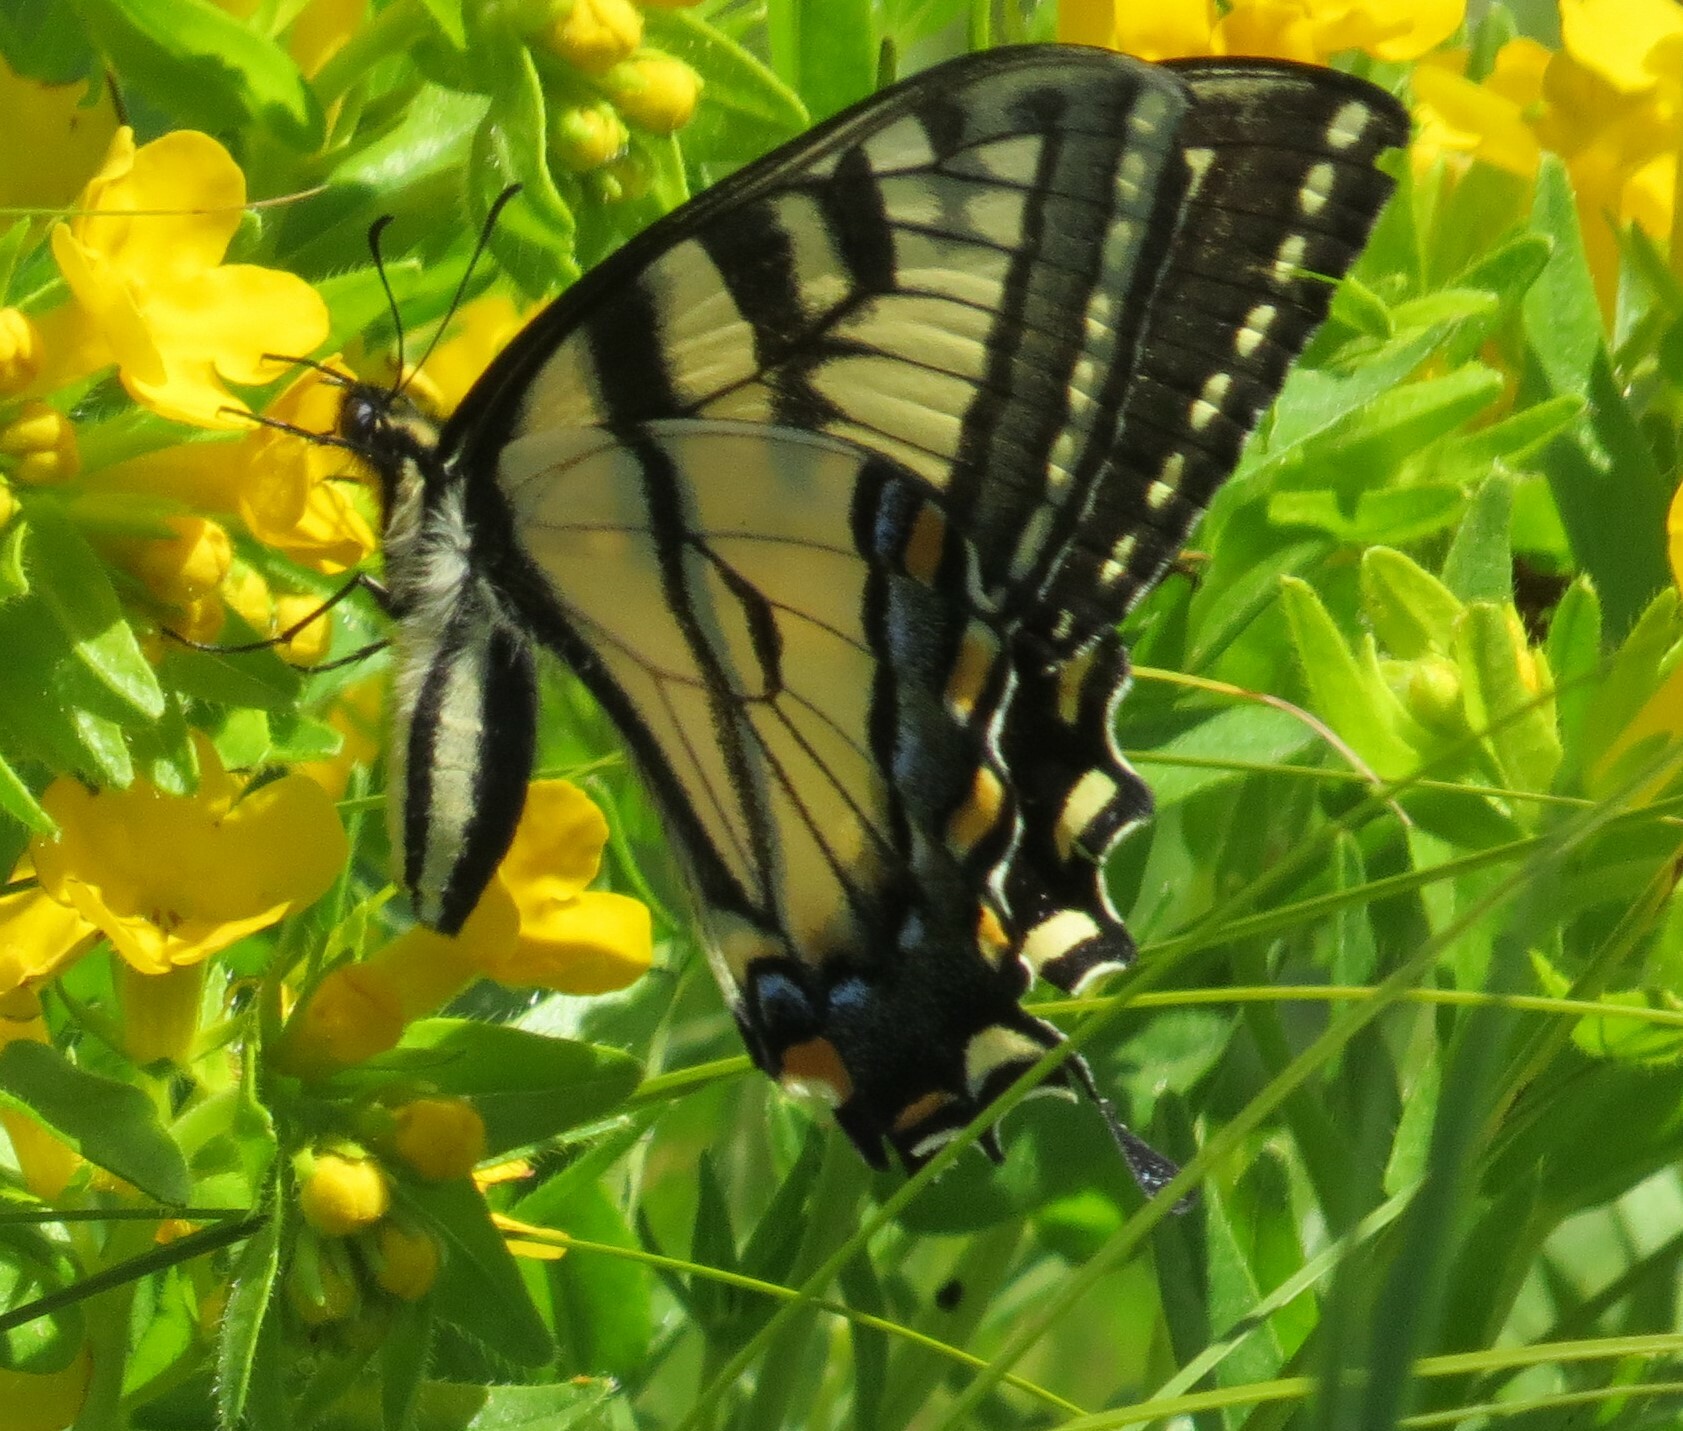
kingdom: Animalia
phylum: Arthropoda
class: Insecta
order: Lepidoptera
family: Papilionidae
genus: Papilio
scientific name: Papilio canadensis
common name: Canadian tiger swallowtail
